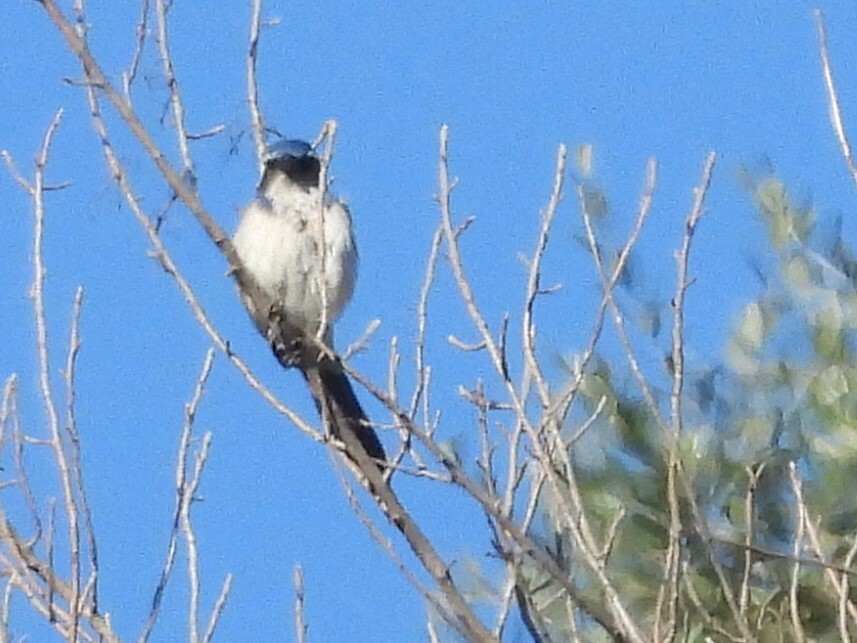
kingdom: Animalia
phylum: Chordata
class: Aves
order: Passeriformes
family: Corvidae
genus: Aphelocoma
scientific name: Aphelocoma californica
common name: California scrub-jay
